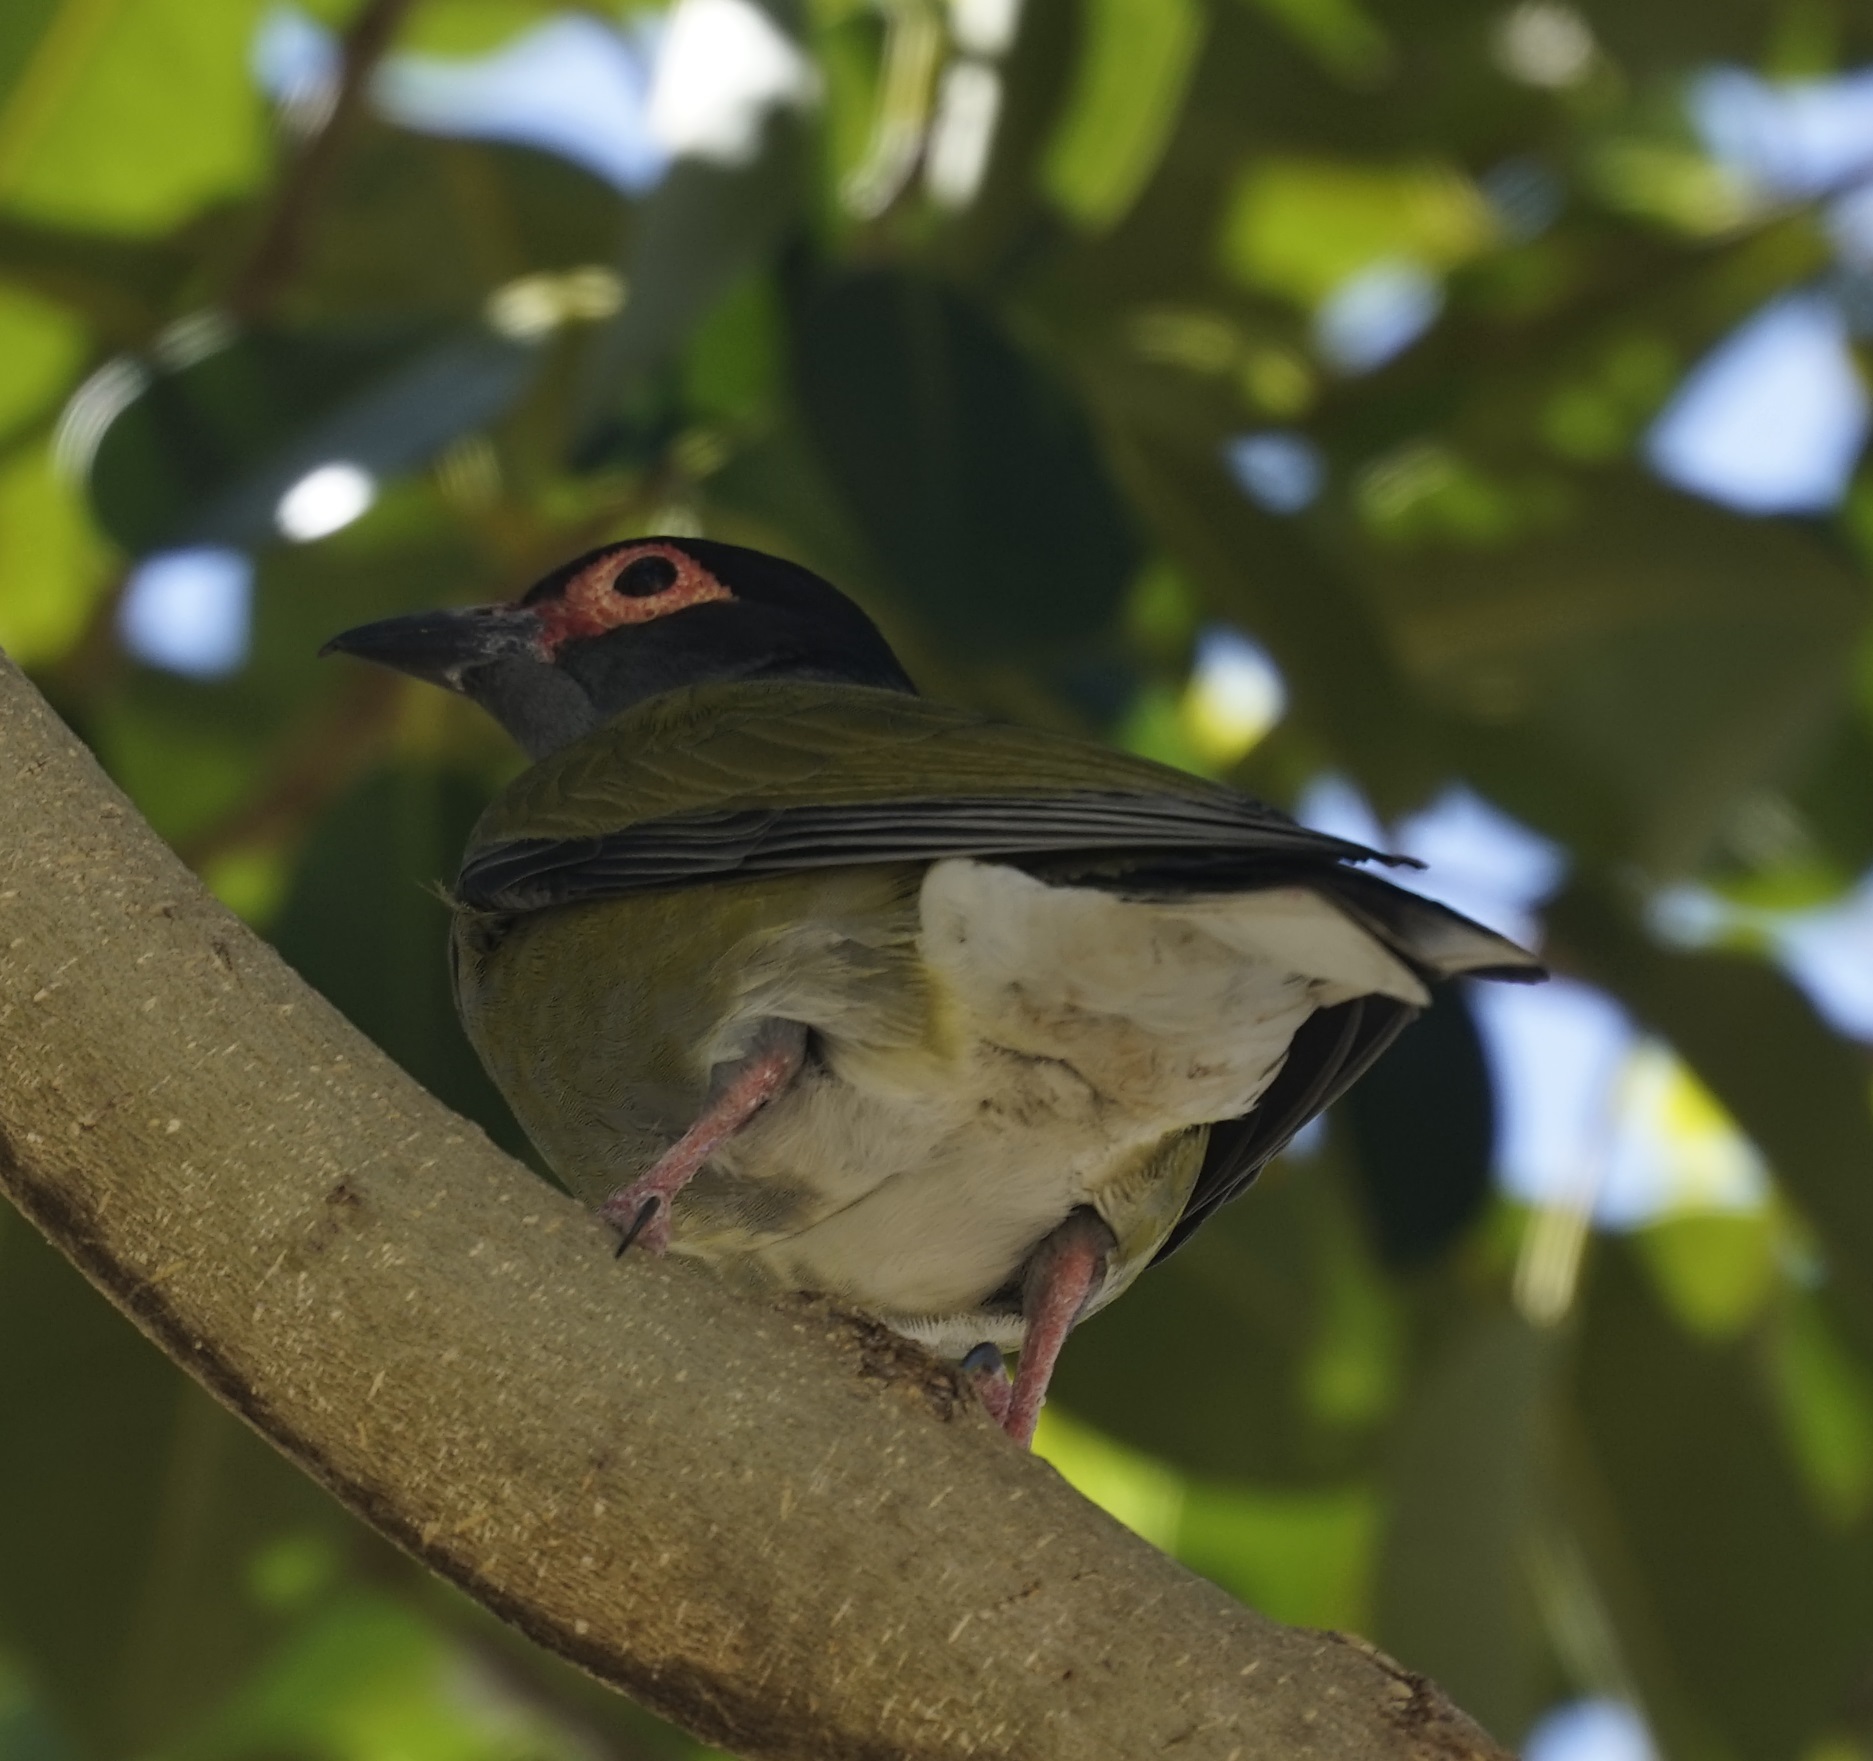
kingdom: Animalia
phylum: Chordata
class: Aves
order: Passeriformes
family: Oriolidae
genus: Sphecotheres
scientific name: Sphecotheres vieilloti
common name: Australasian figbird
